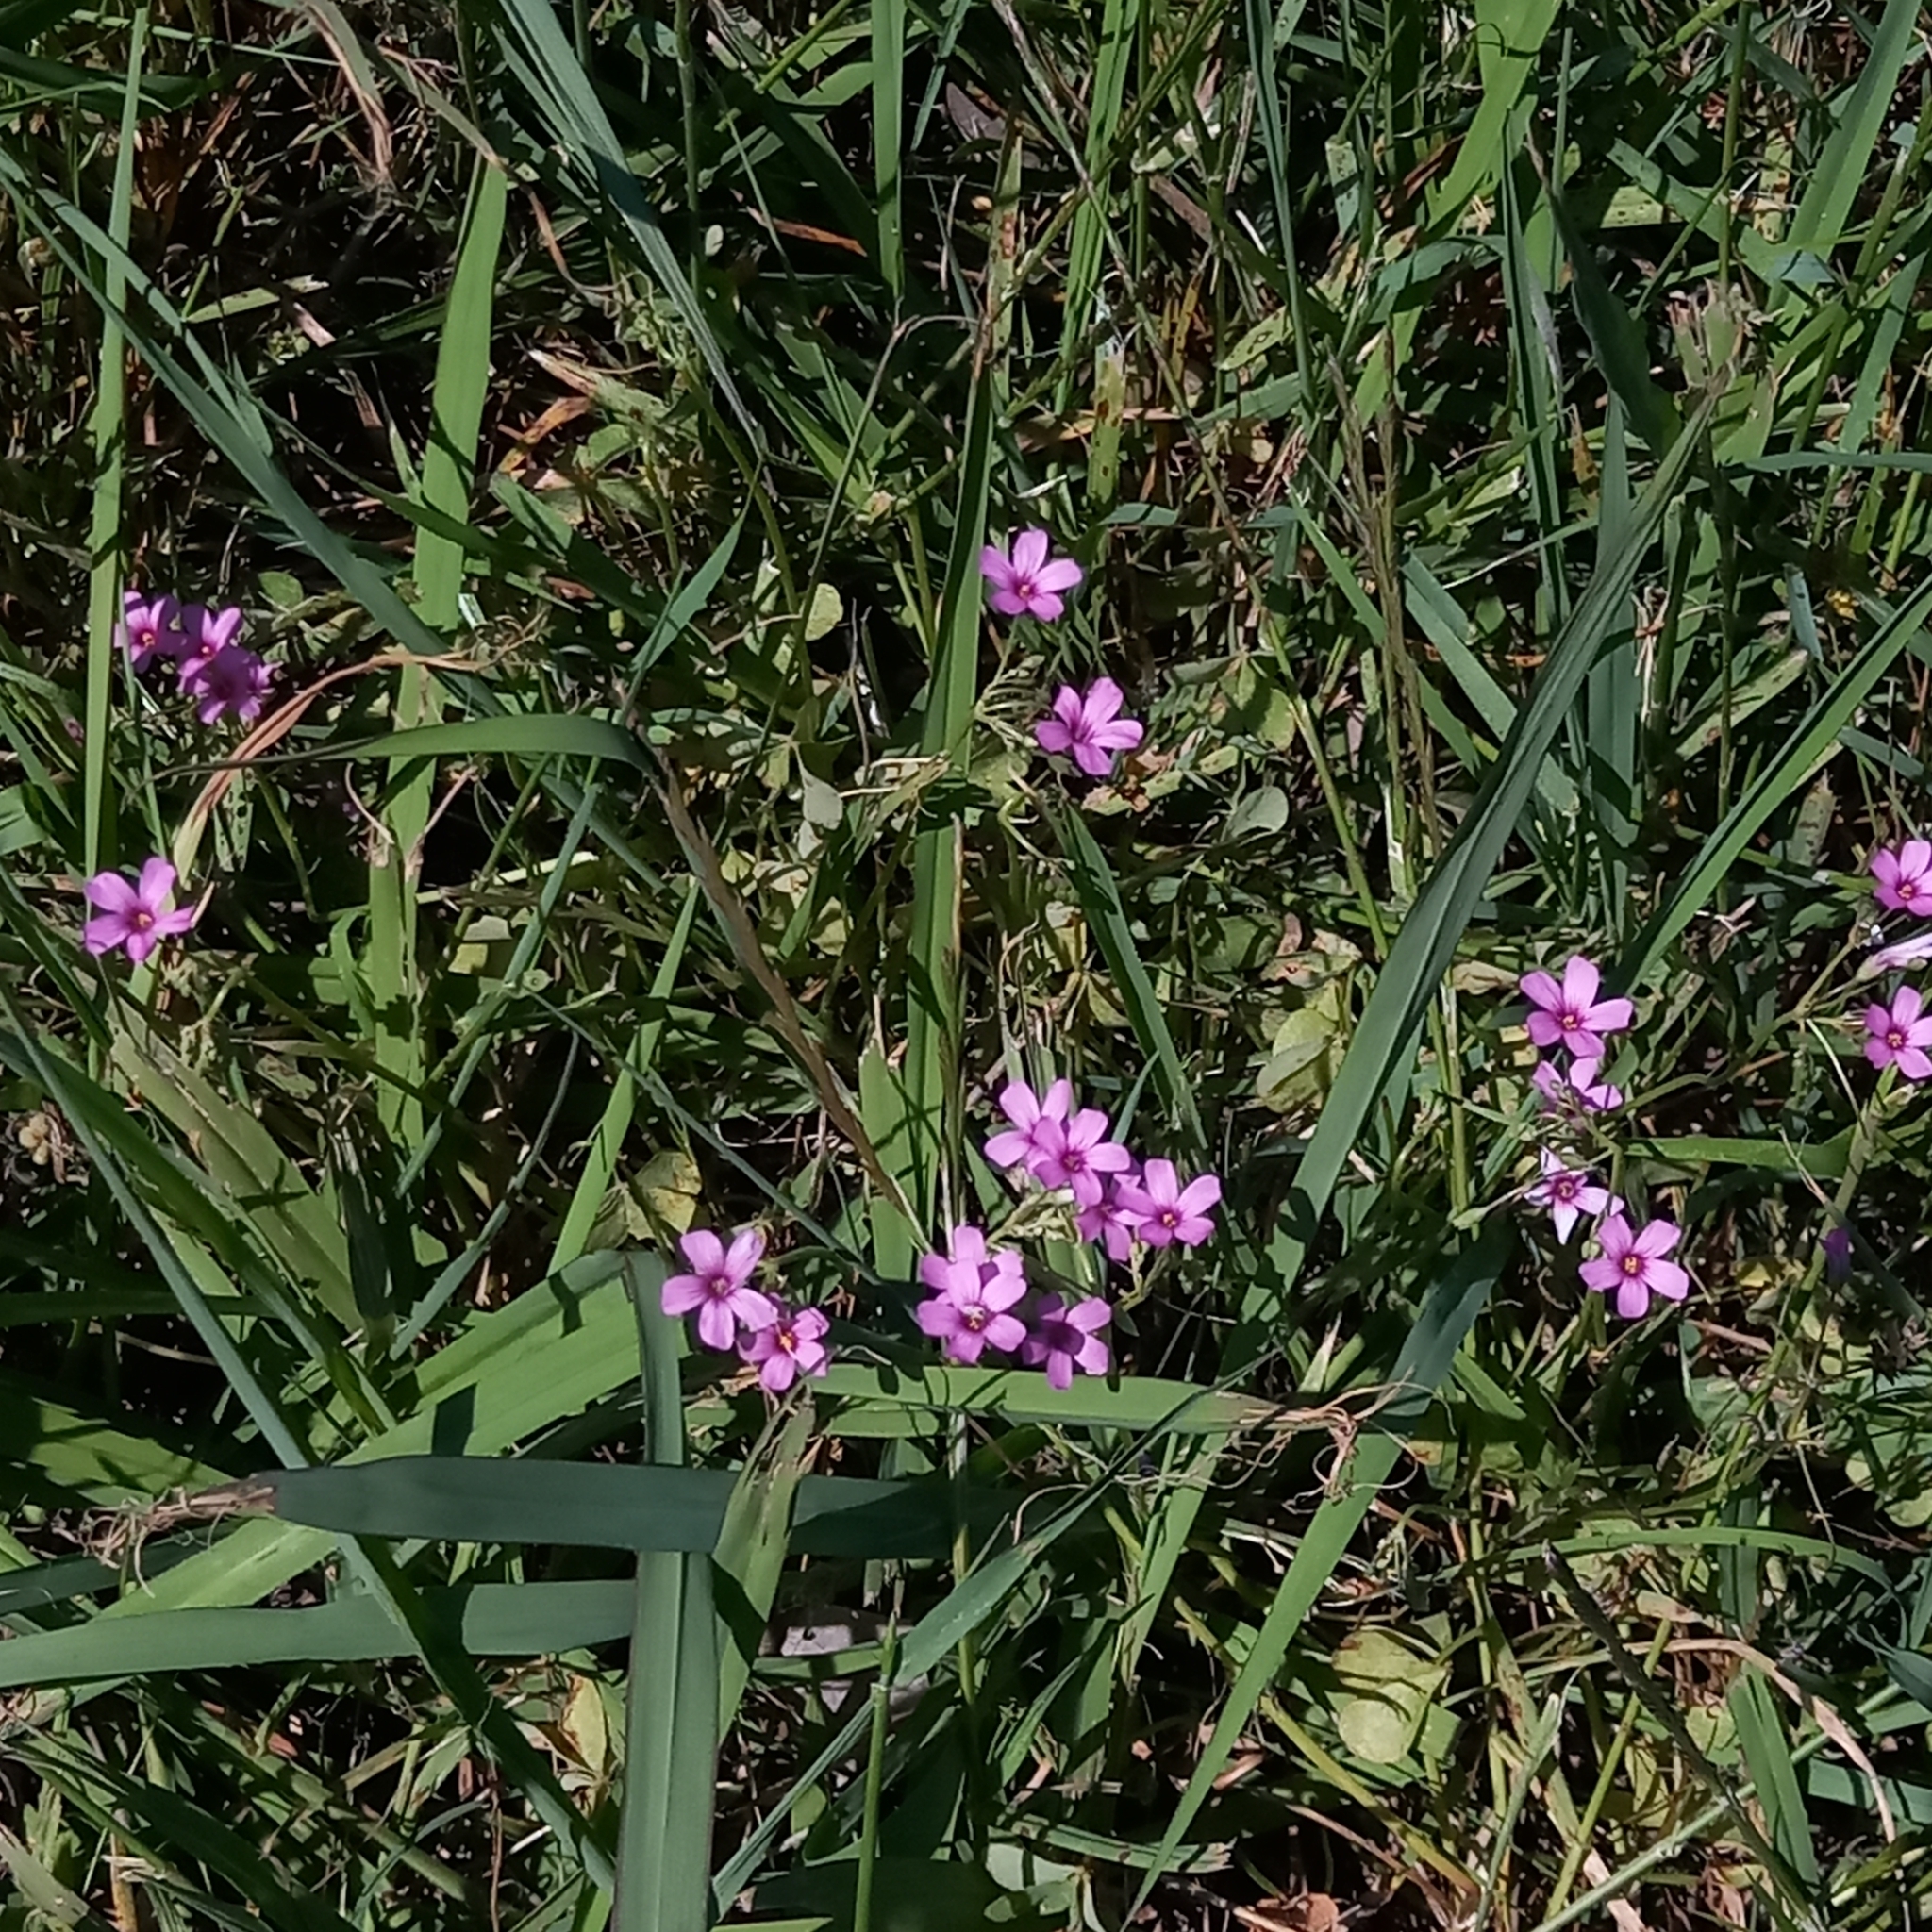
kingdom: Plantae
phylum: Tracheophyta
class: Magnoliopsida
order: Oxalidales
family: Oxalidaceae
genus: Oxalis
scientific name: Oxalis articulata
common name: Pink-sorrel
